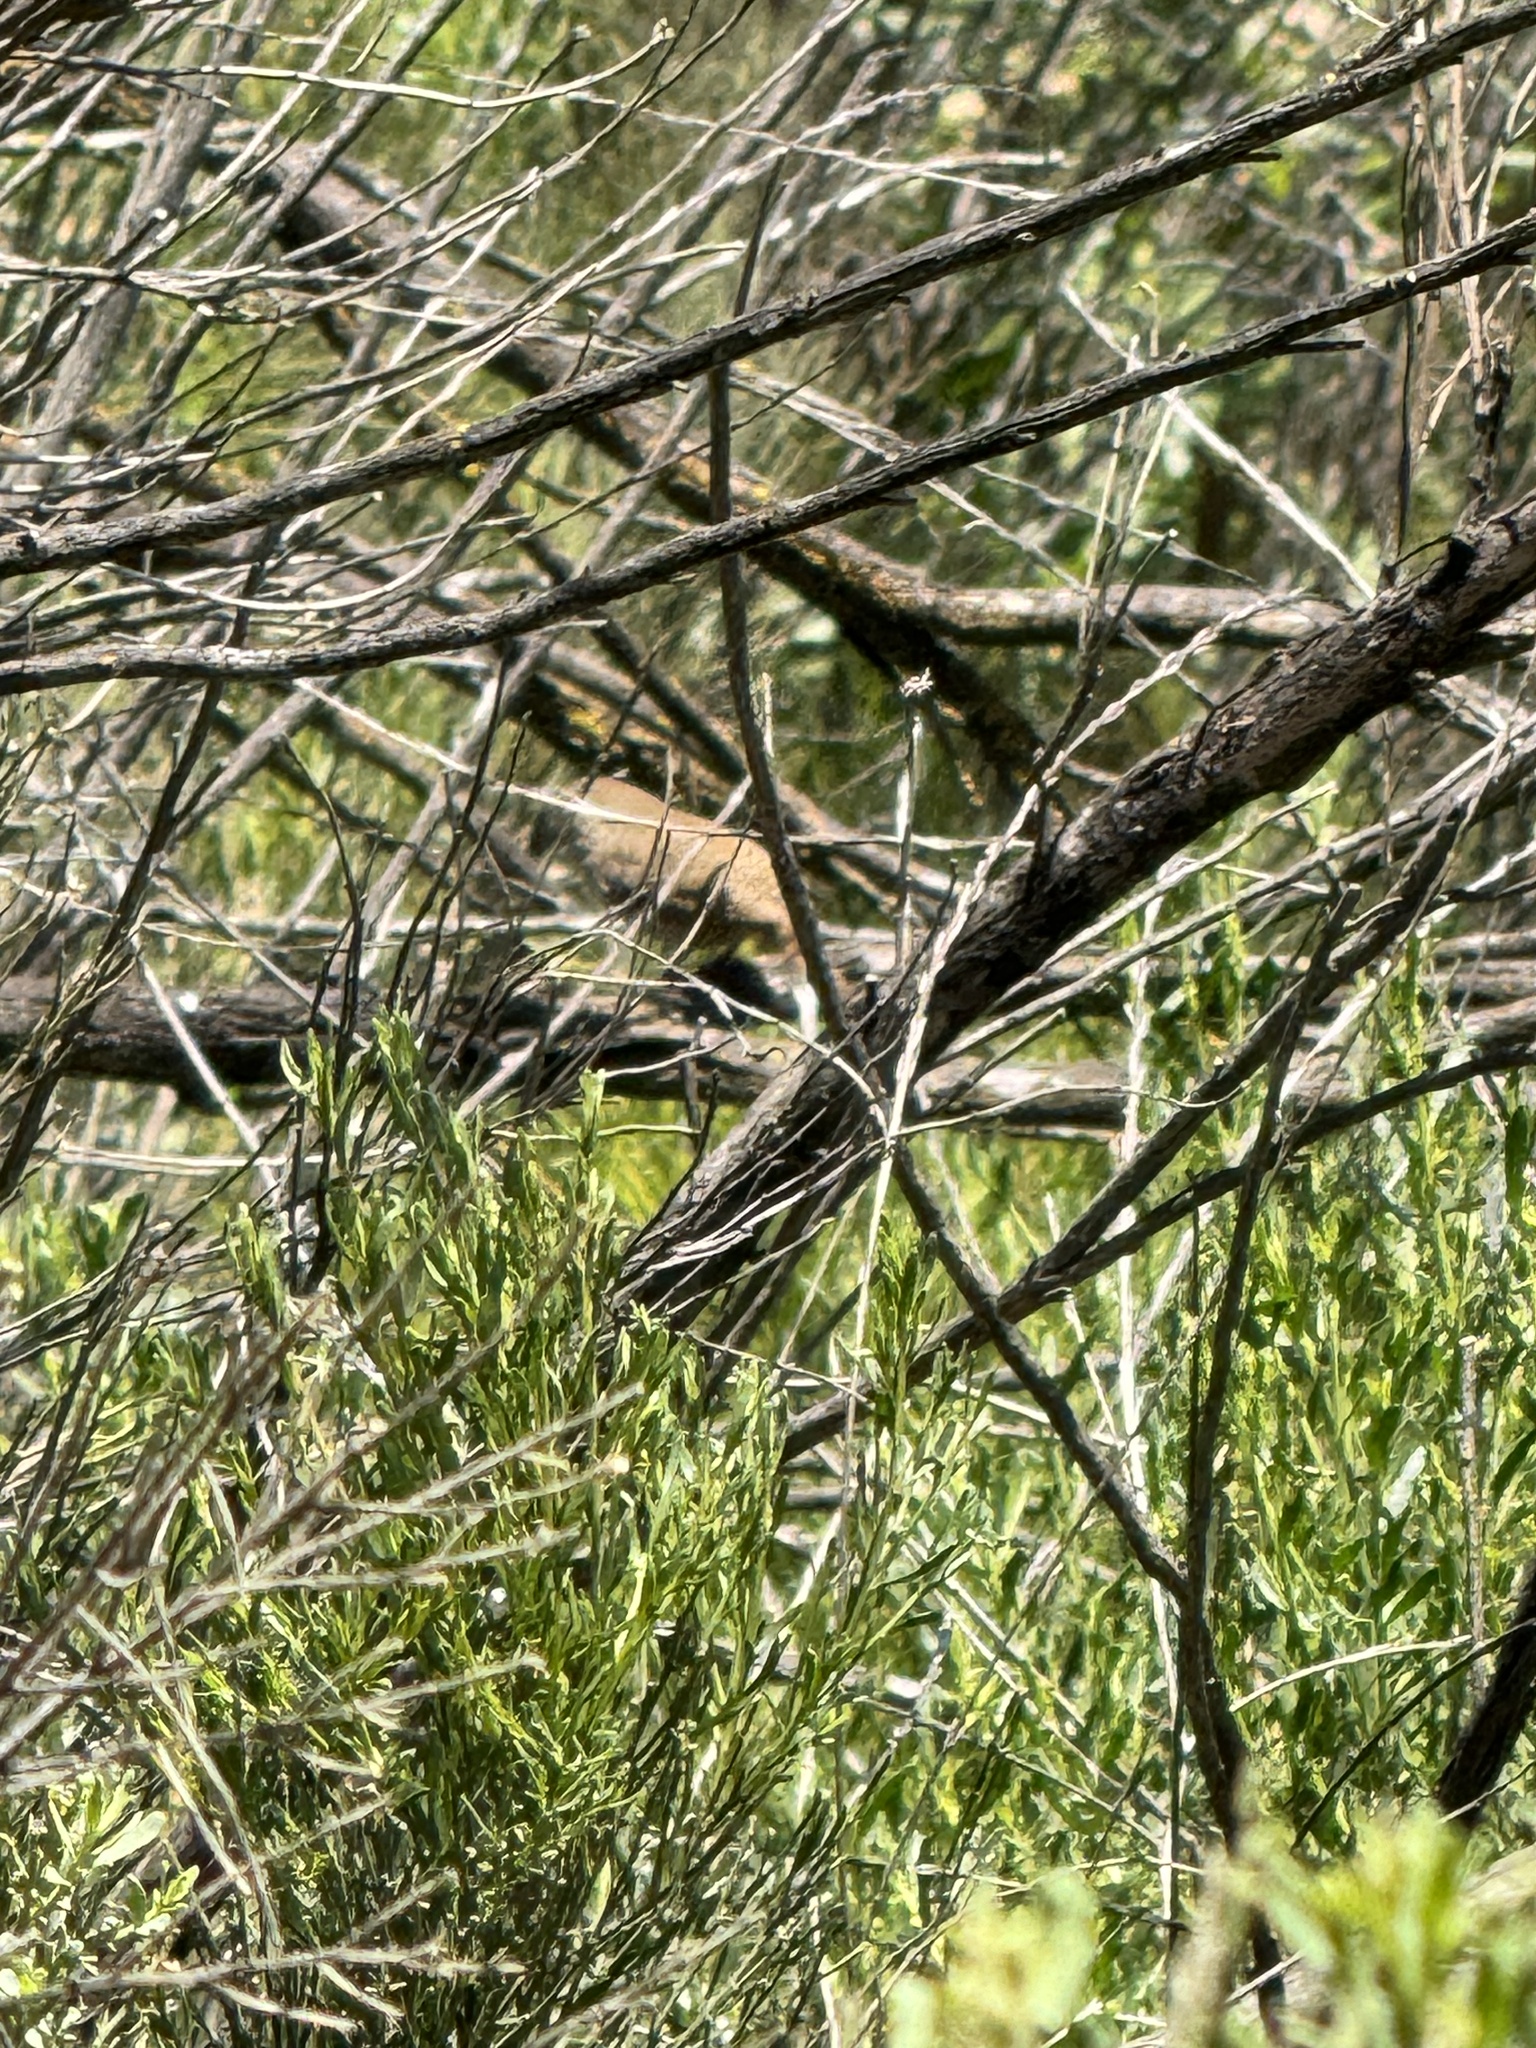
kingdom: Animalia
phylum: Chordata
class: Aves
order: Passeriformes
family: Troglodytidae
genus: Troglodytes
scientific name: Troglodytes aedon
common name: House wren
